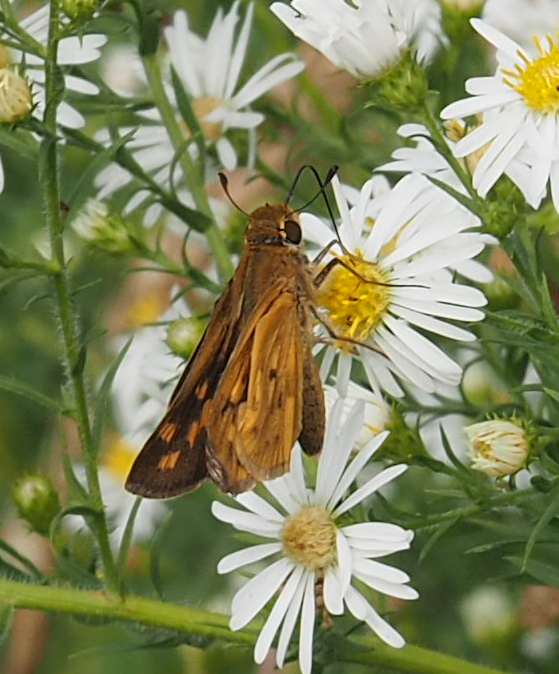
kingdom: Animalia
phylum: Arthropoda
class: Insecta
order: Lepidoptera
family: Hesperiidae
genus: Hylephila
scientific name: Hylephila phyleus
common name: Fiery skipper
